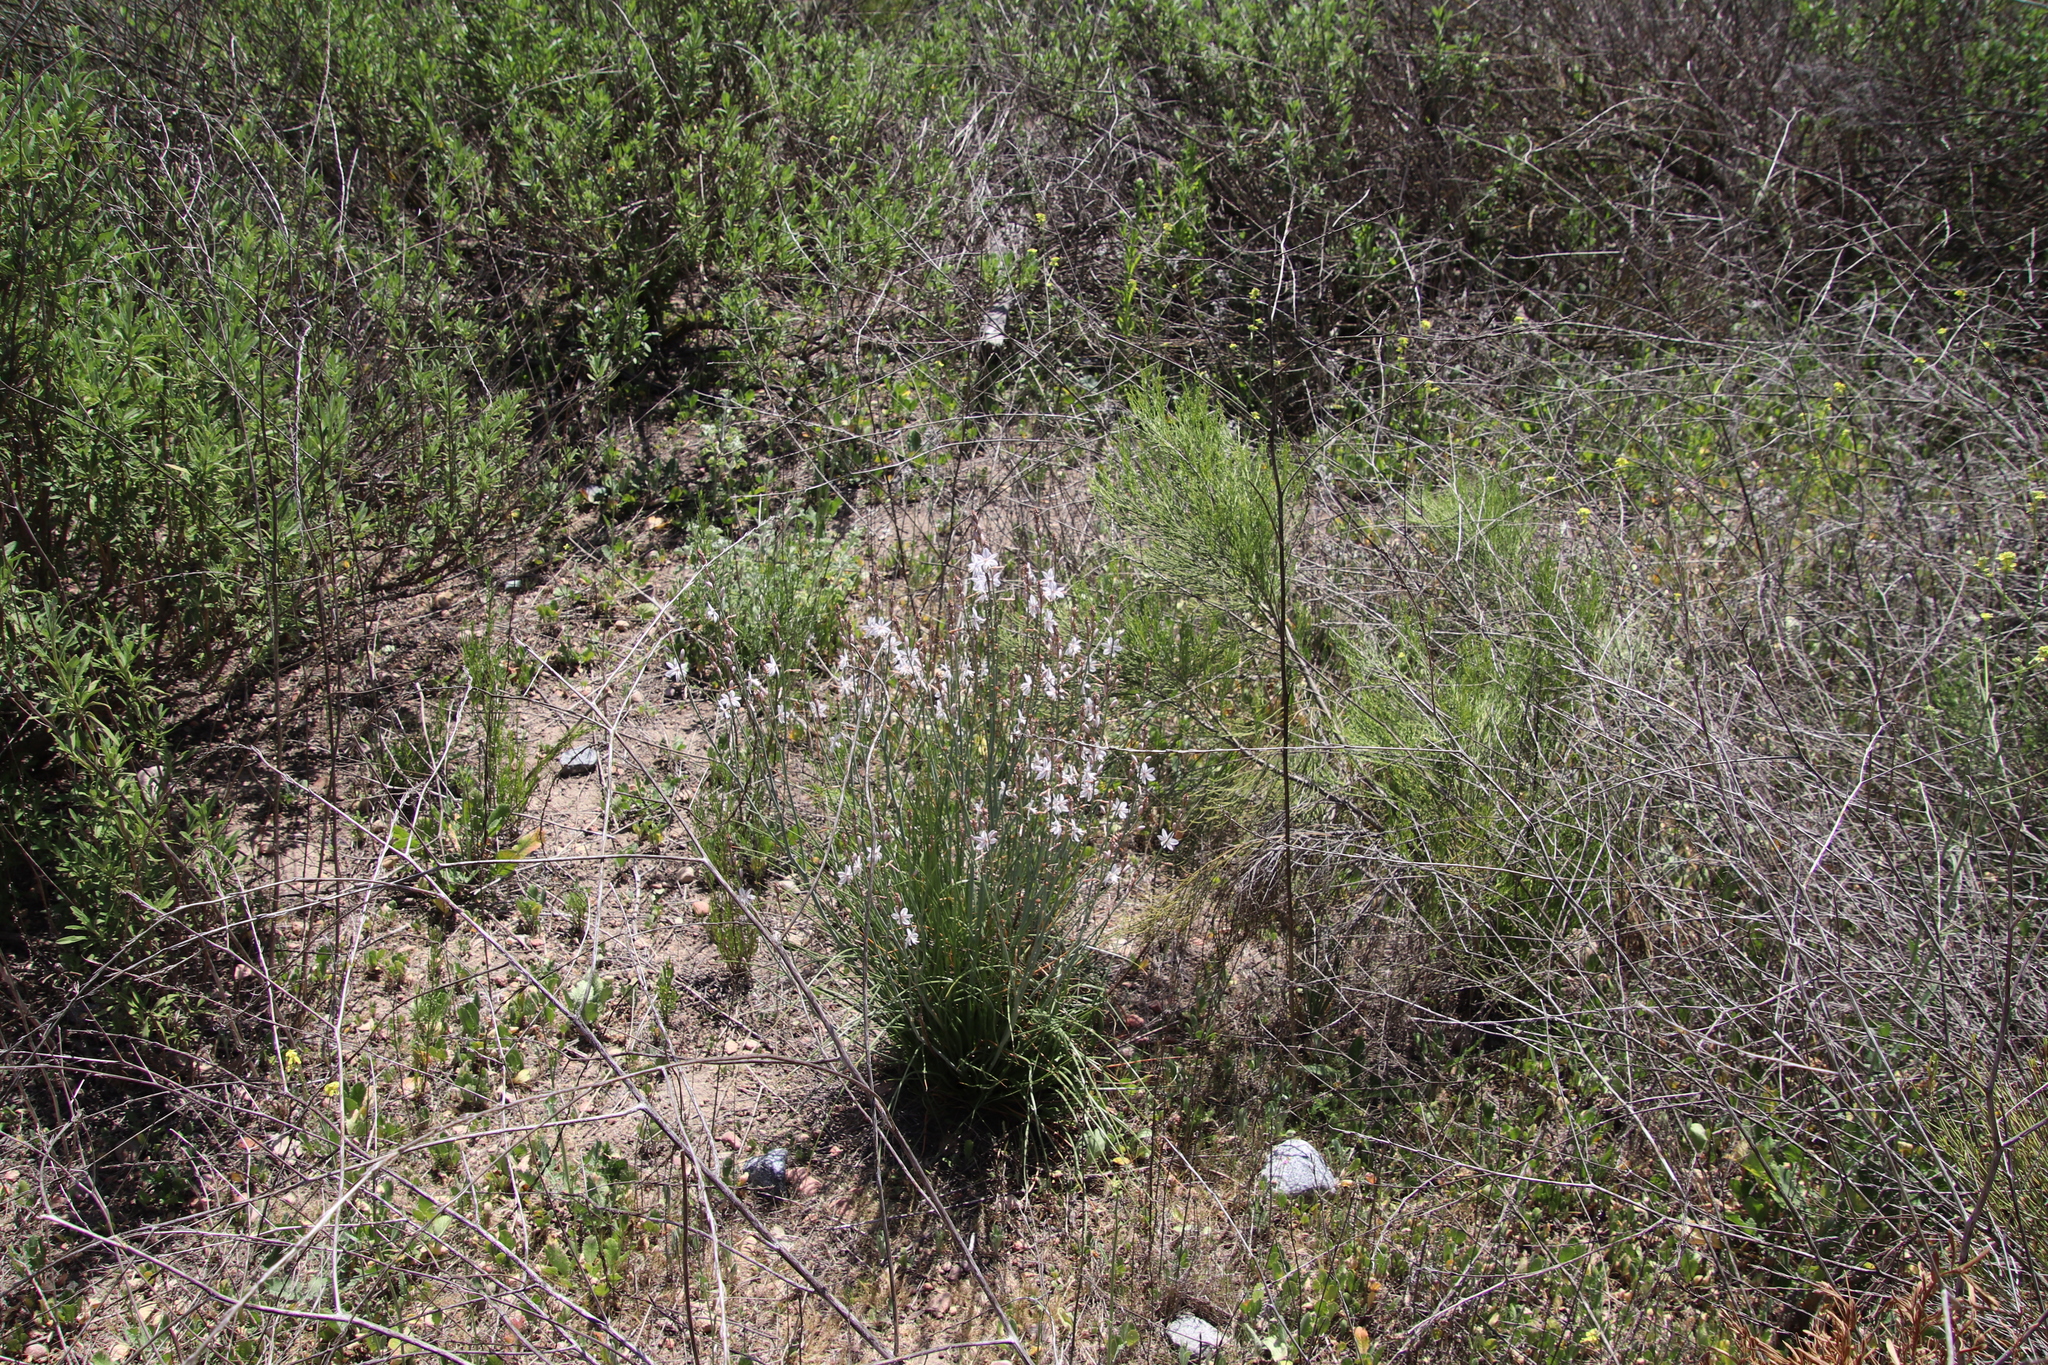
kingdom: Plantae
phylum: Tracheophyta
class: Liliopsida
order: Asparagales
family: Asphodelaceae
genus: Asphodelus
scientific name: Asphodelus fistulosus
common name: Onionweed
